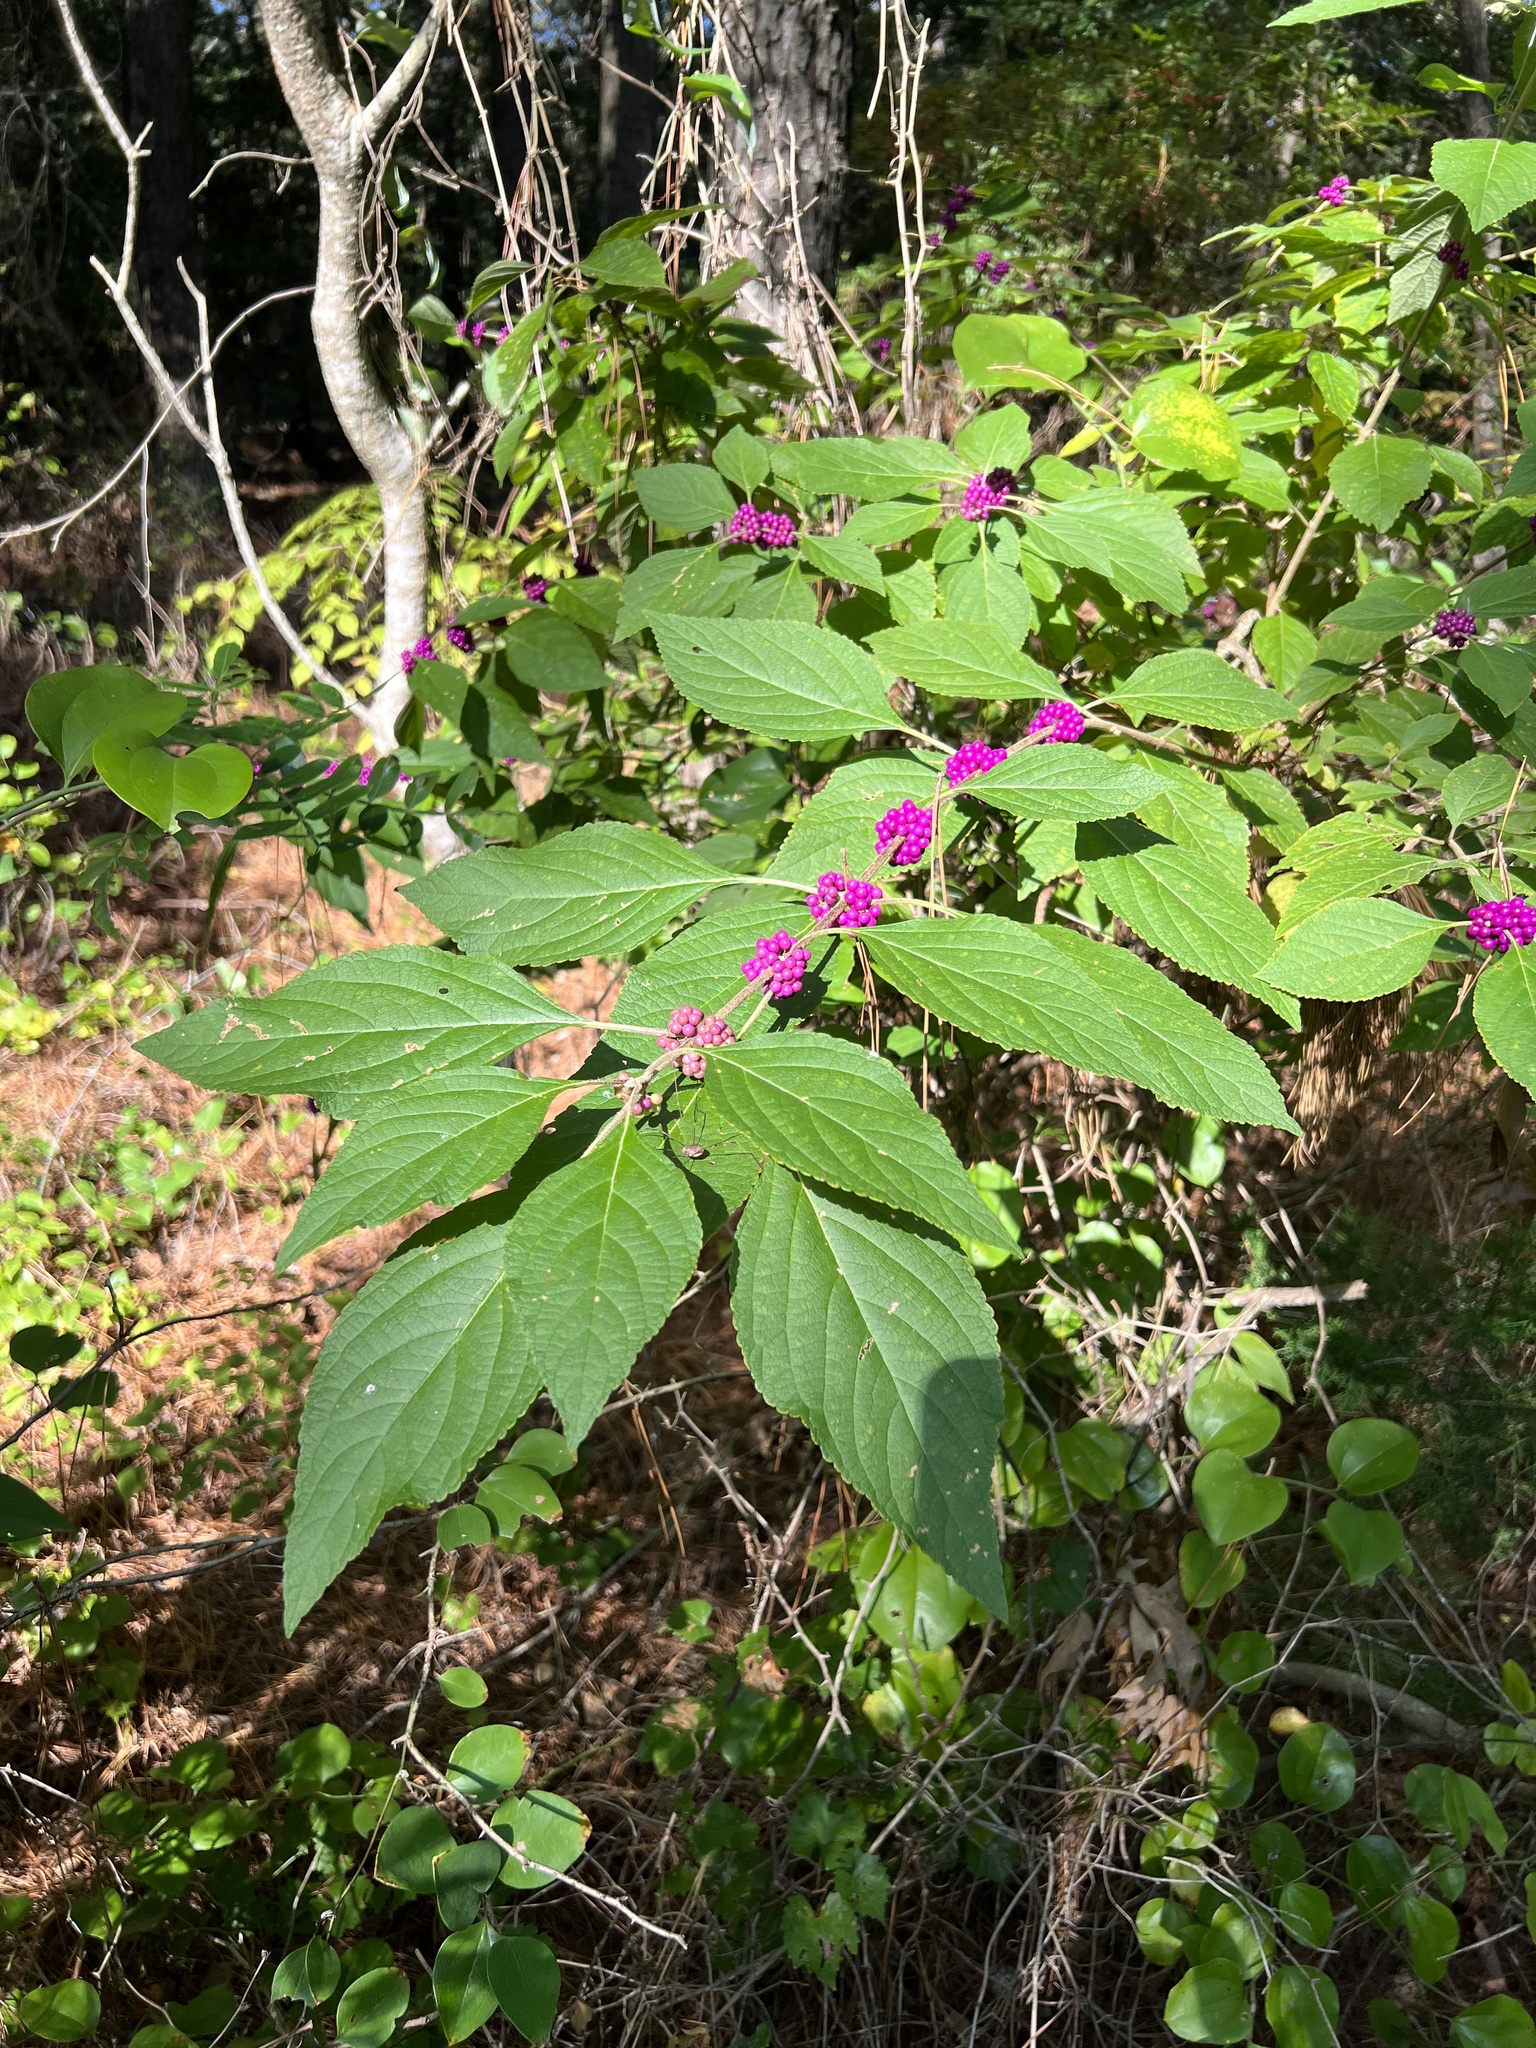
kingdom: Plantae
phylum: Tracheophyta
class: Magnoliopsida
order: Lamiales
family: Lamiaceae
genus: Callicarpa
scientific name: Callicarpa americana
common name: American beautyberry
